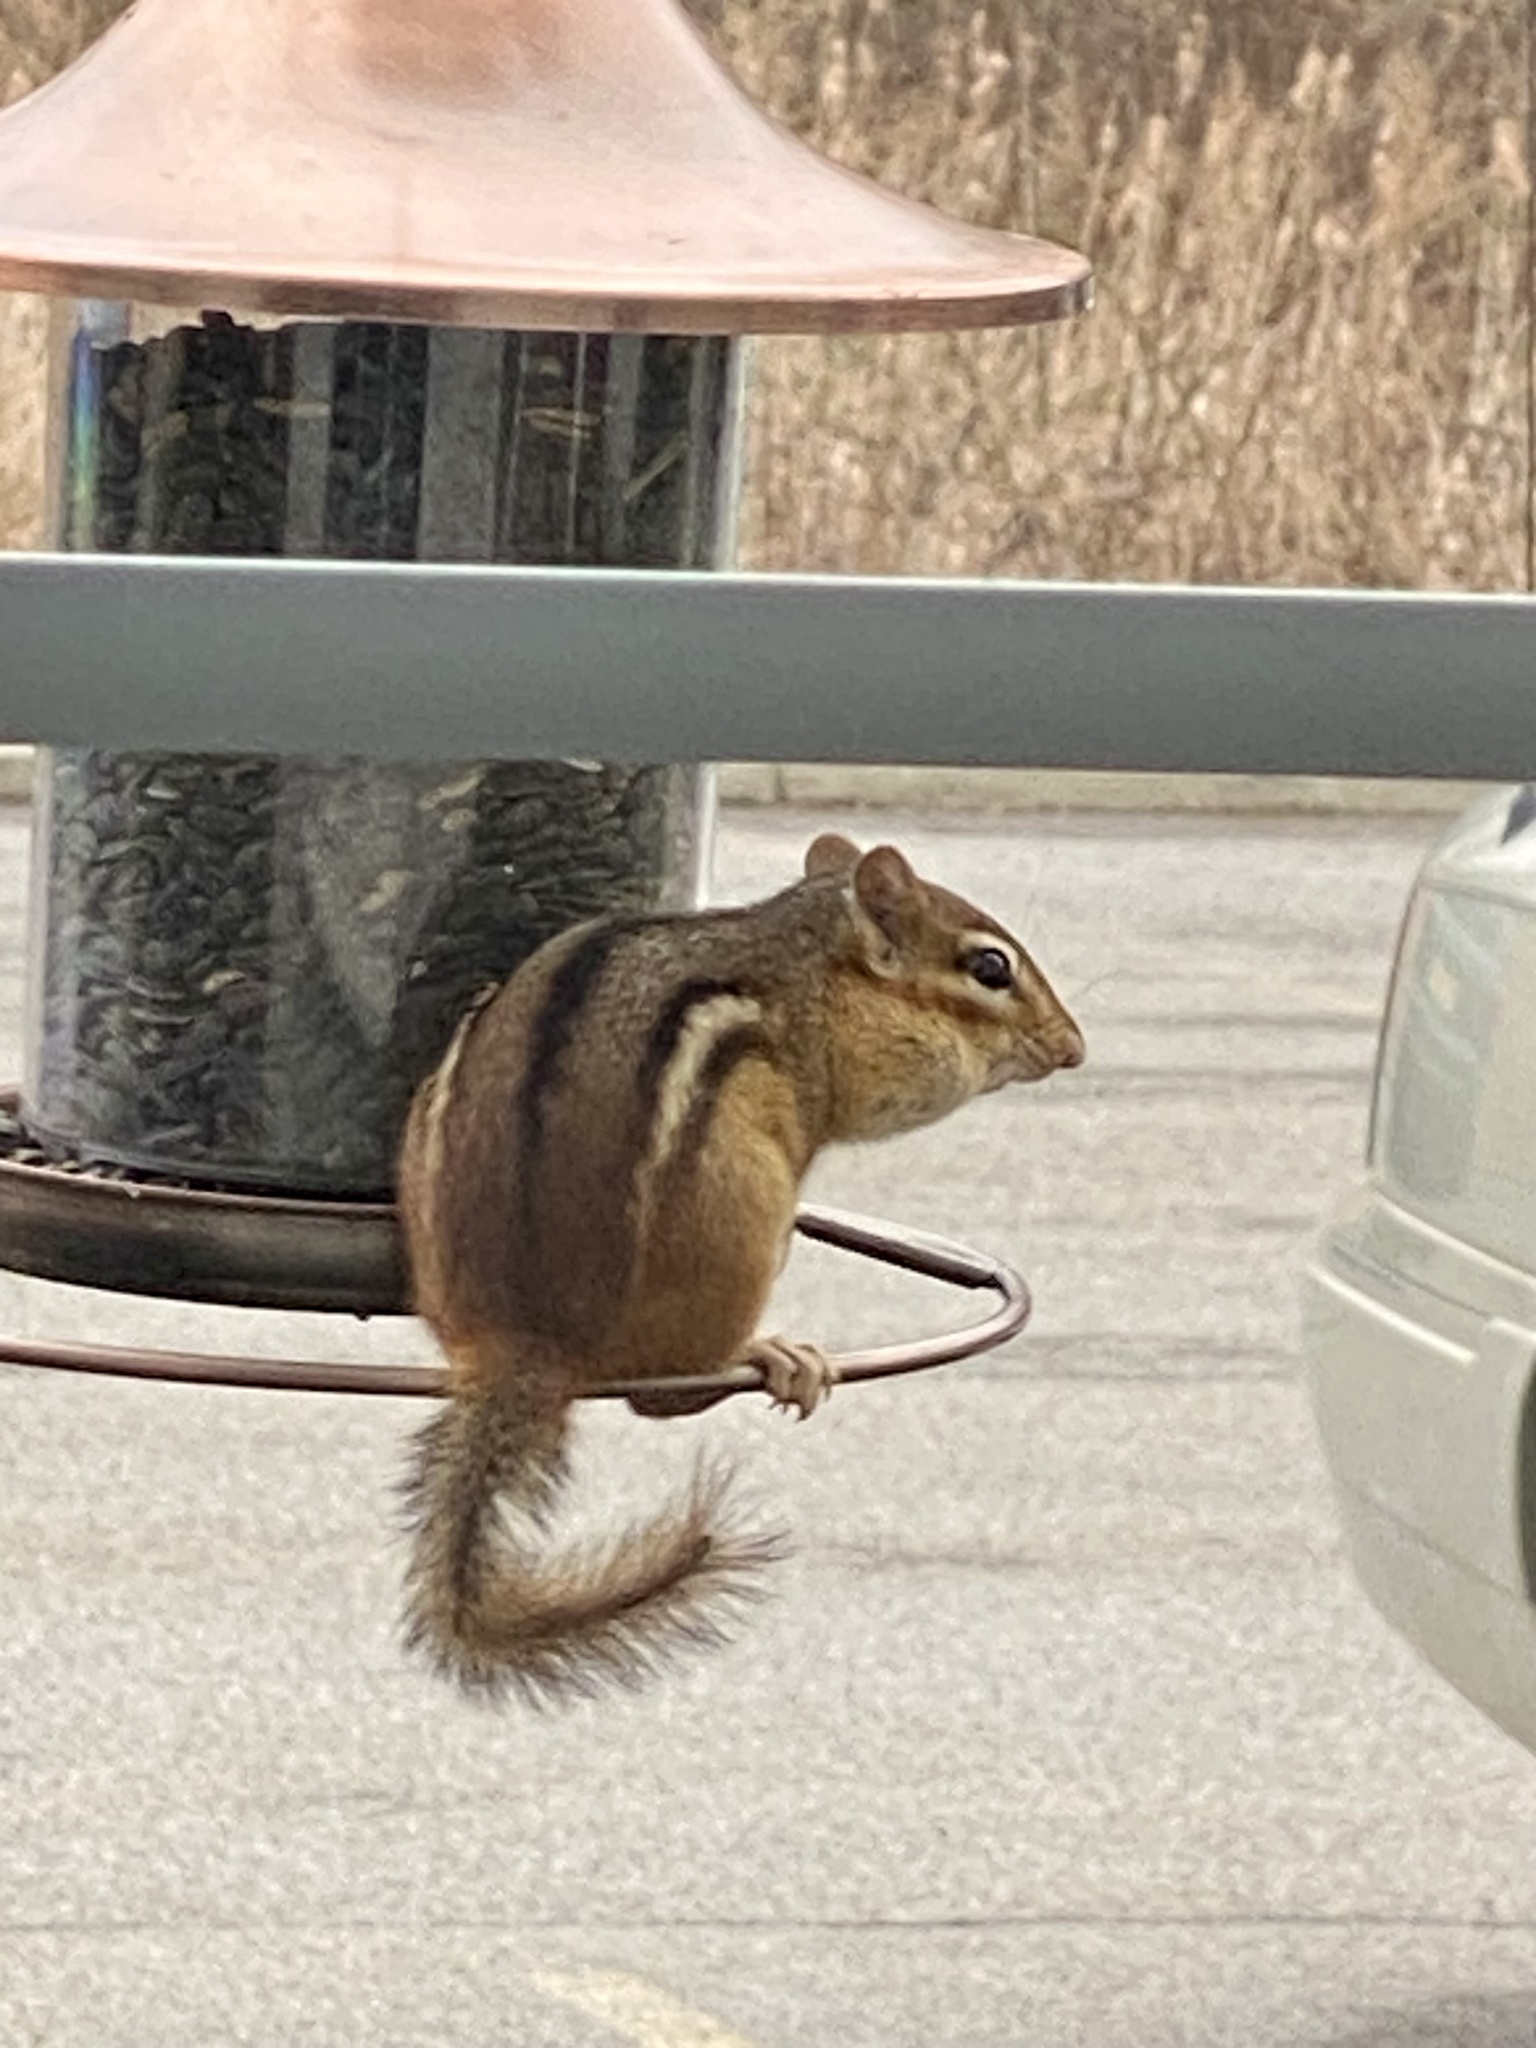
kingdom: Animalia
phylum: Chordata
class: Mammalia
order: Rodentia
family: Sciuridae
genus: Tamias
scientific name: Tamias striatus
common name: Eastern chipmunk
